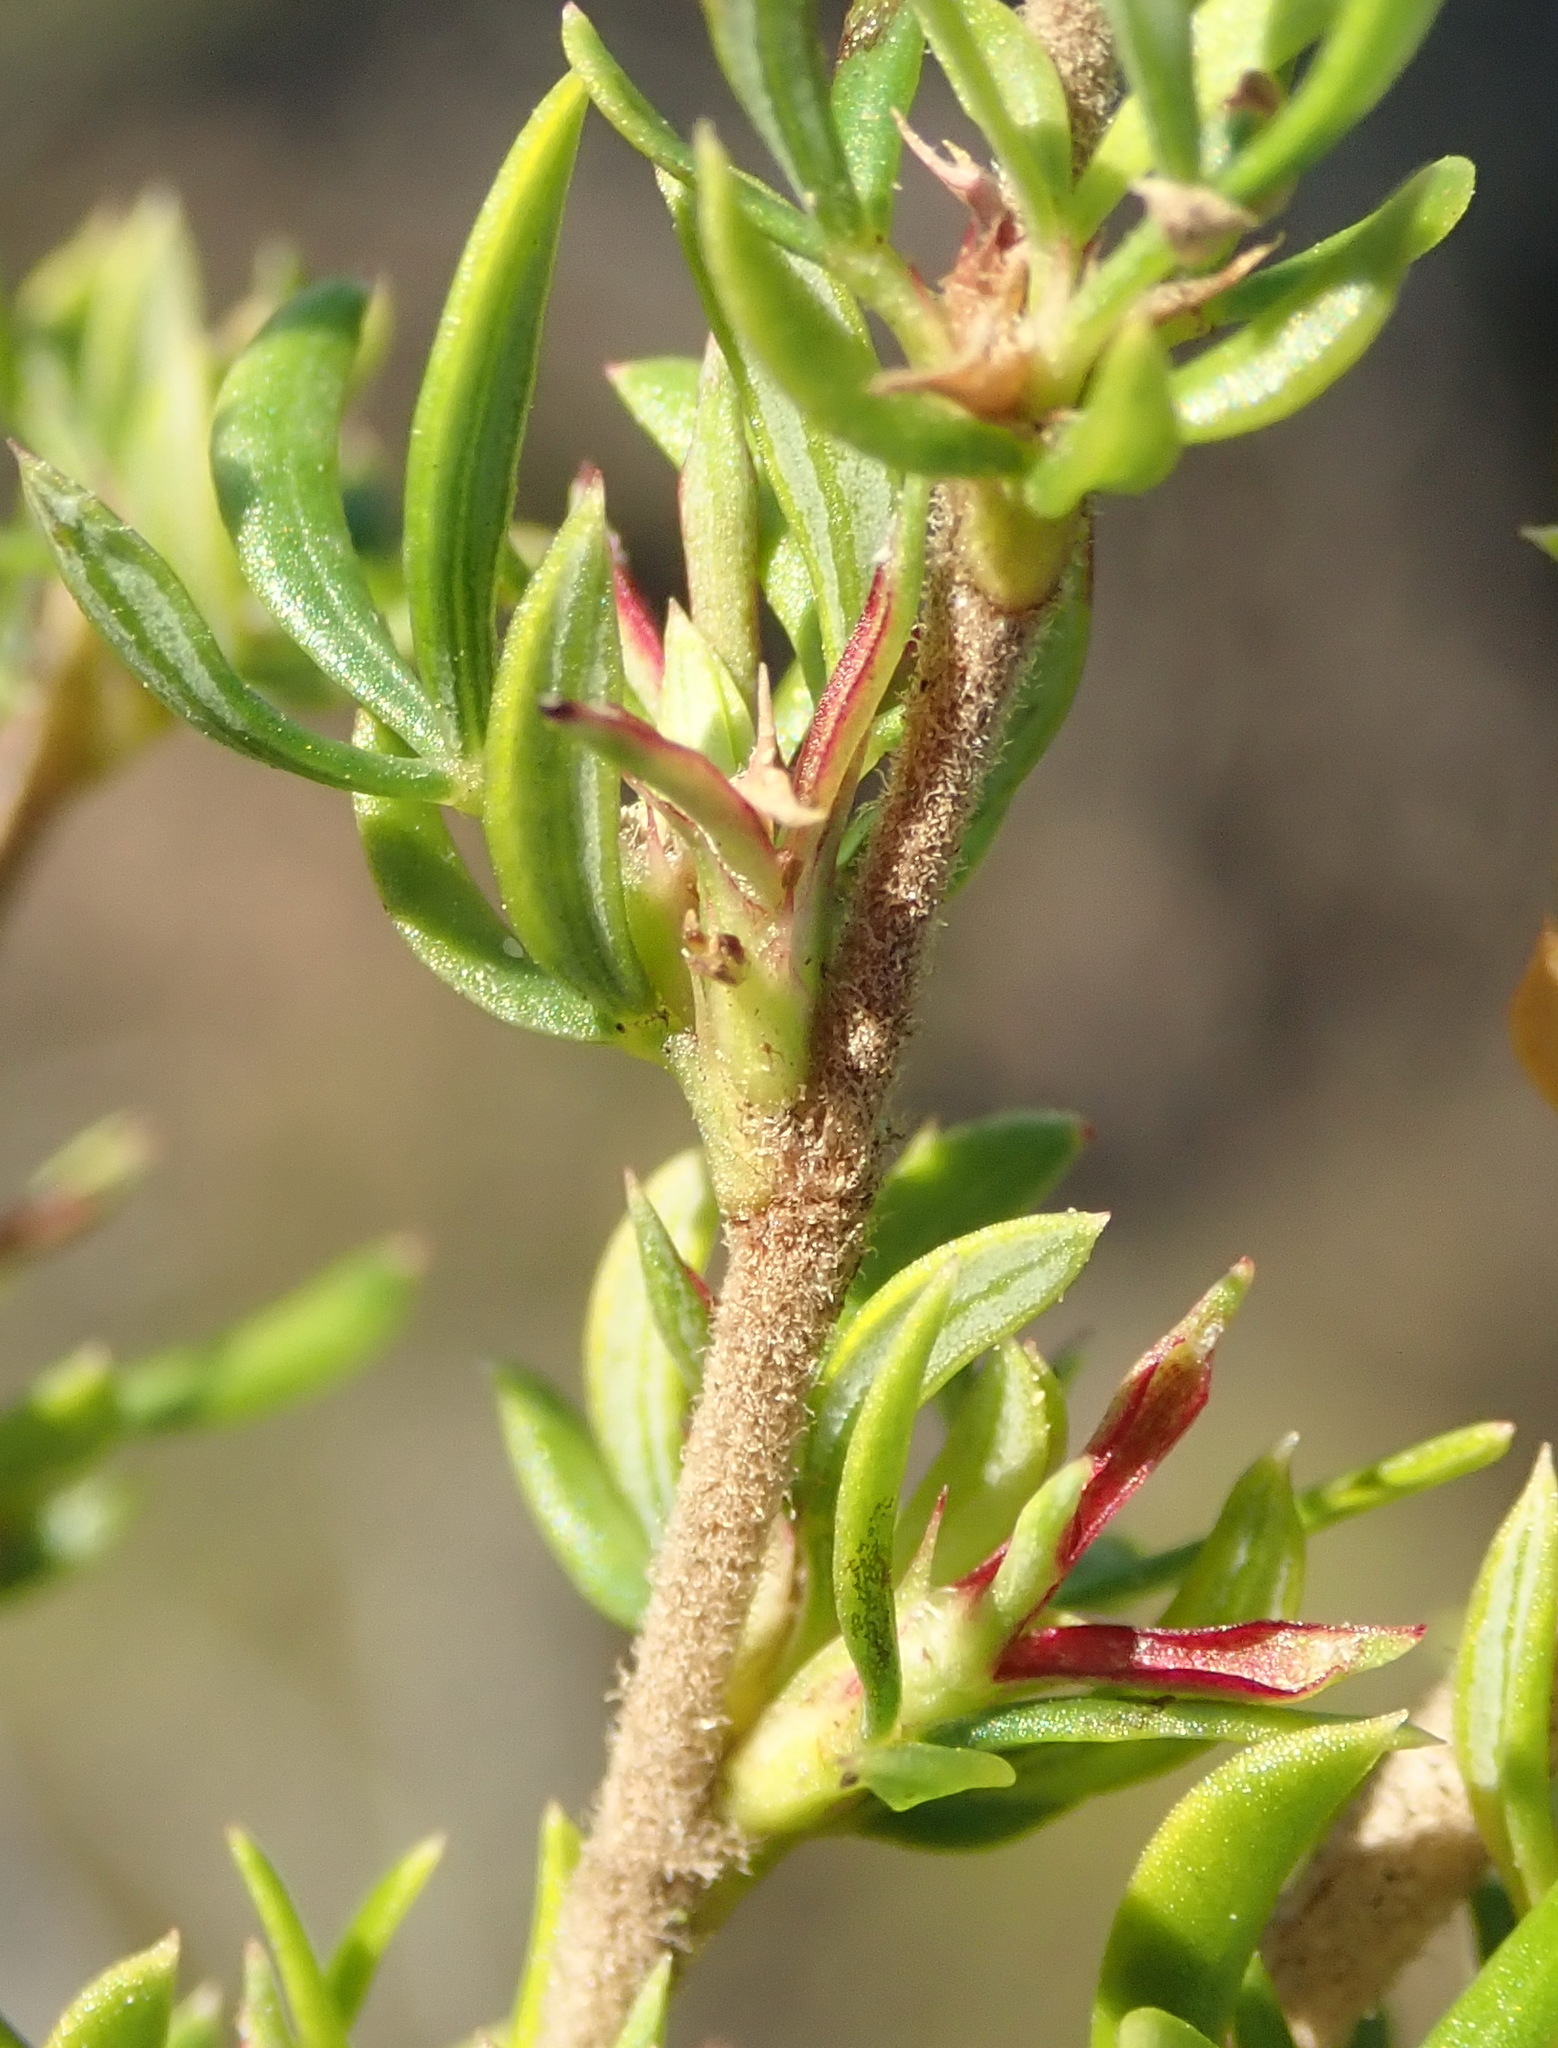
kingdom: Plantae
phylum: Tracheophyta
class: Magnoliopsida
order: Rosales
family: Rosaceae
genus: Cliffortia
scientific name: Cliffortia falcata
